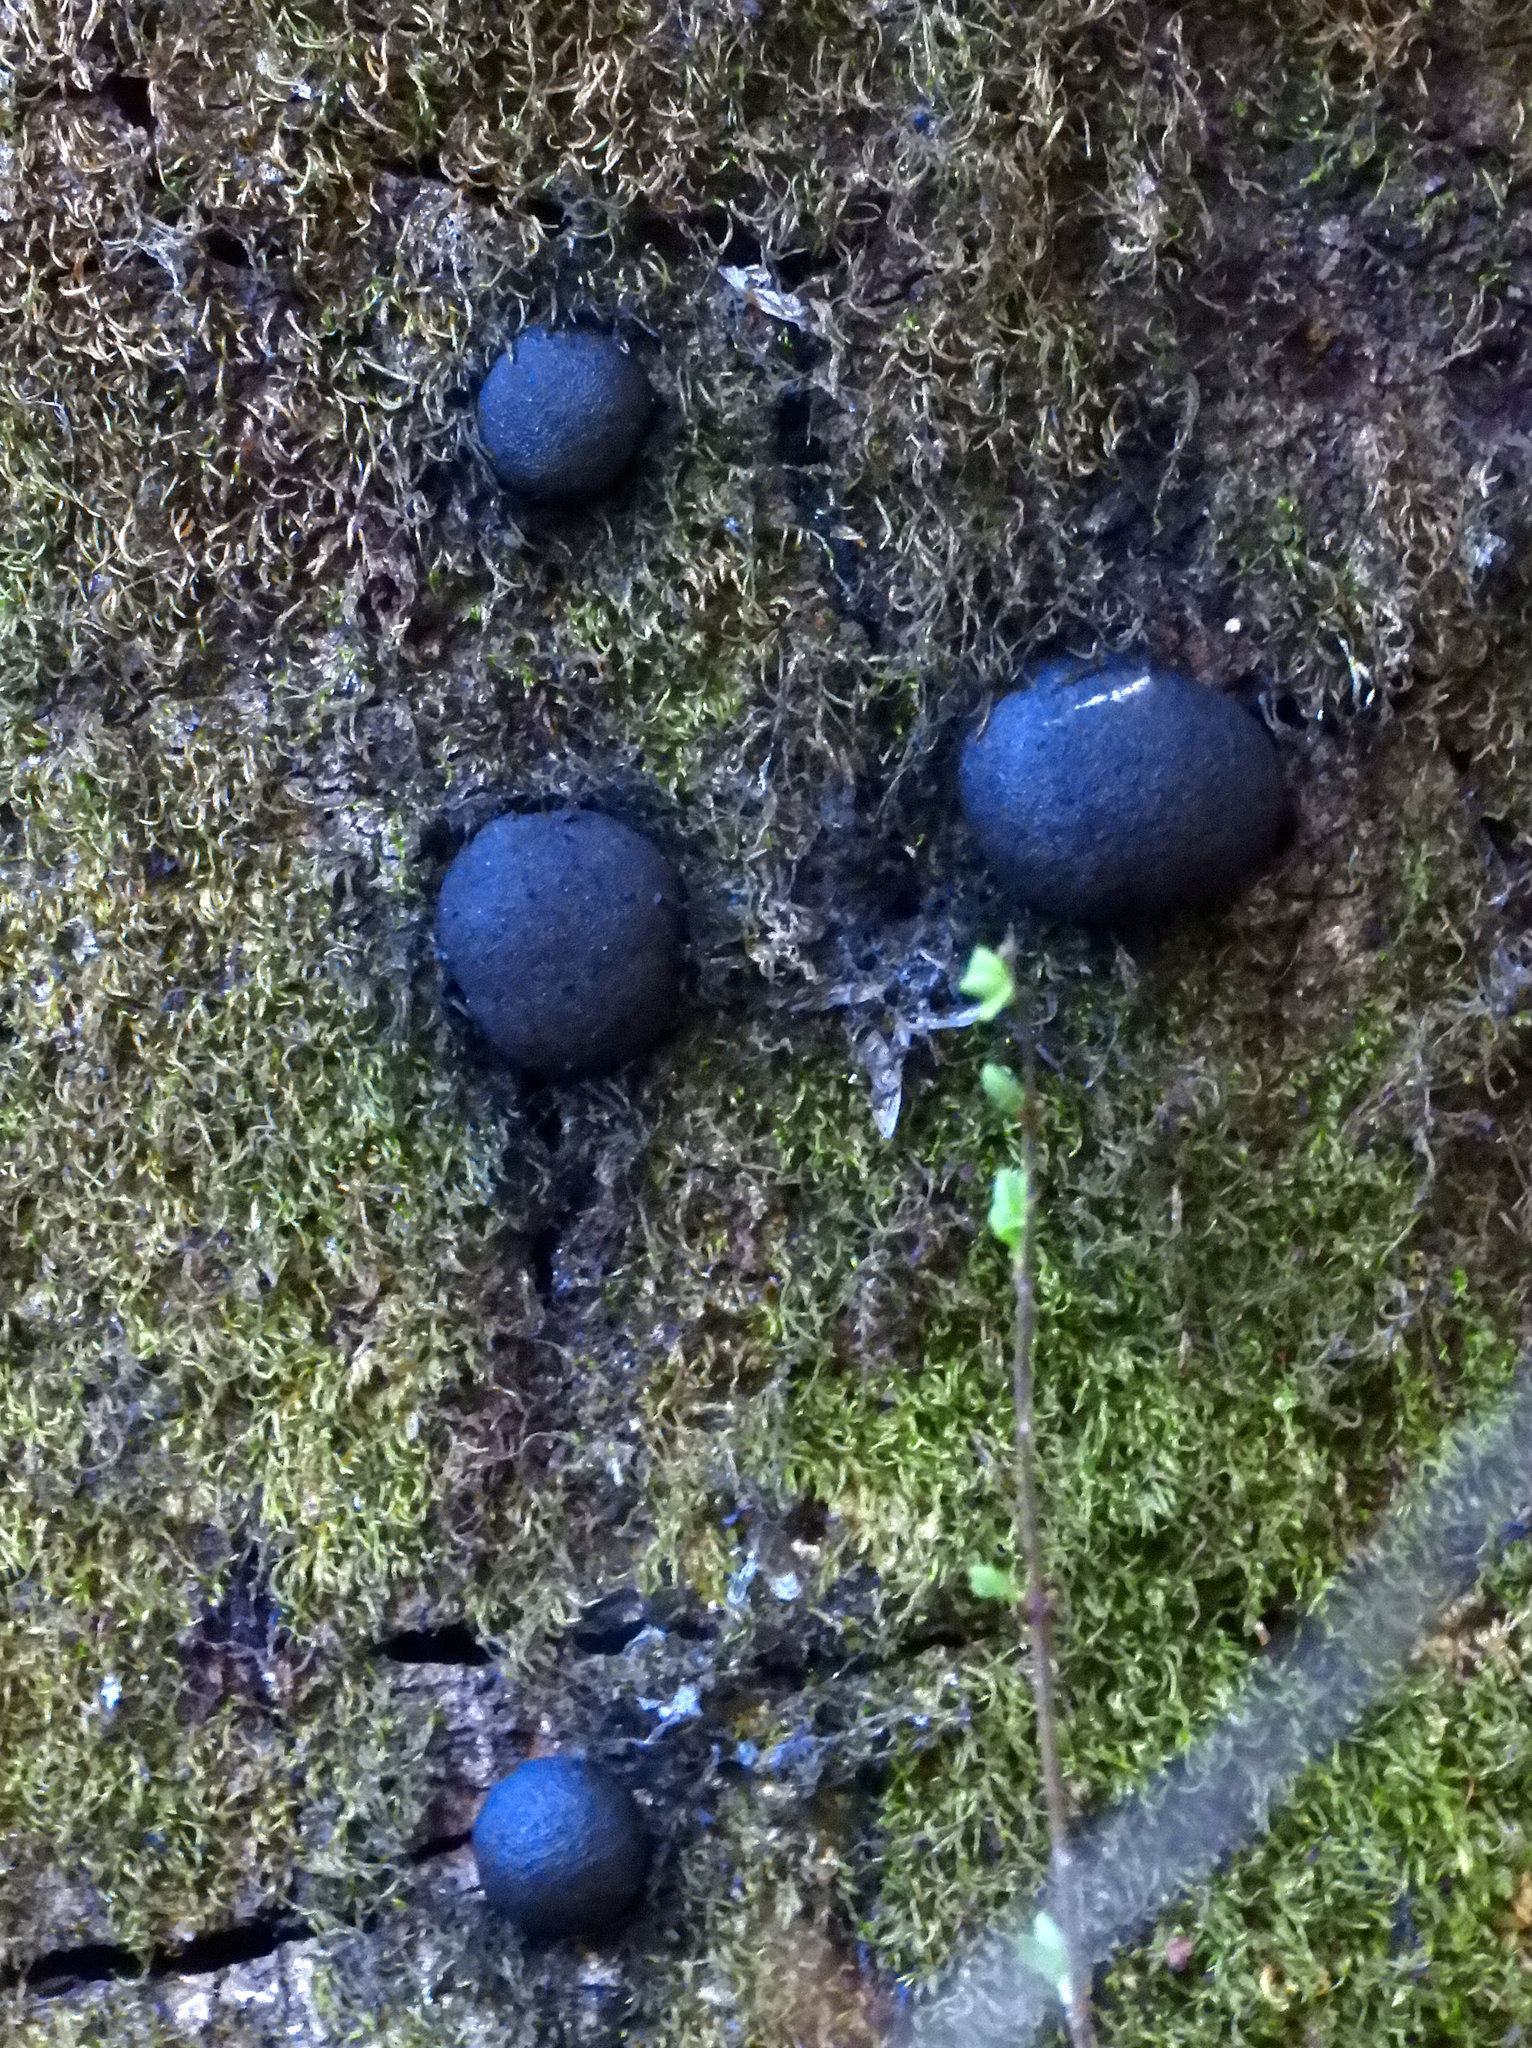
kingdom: Fungi
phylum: Ascomycota
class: Sordariomycetes
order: Xylariales
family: Hypoxylaceae
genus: Annulohypoxylon
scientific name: Annulohypoxylon thouarsianum
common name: Cramp balls
